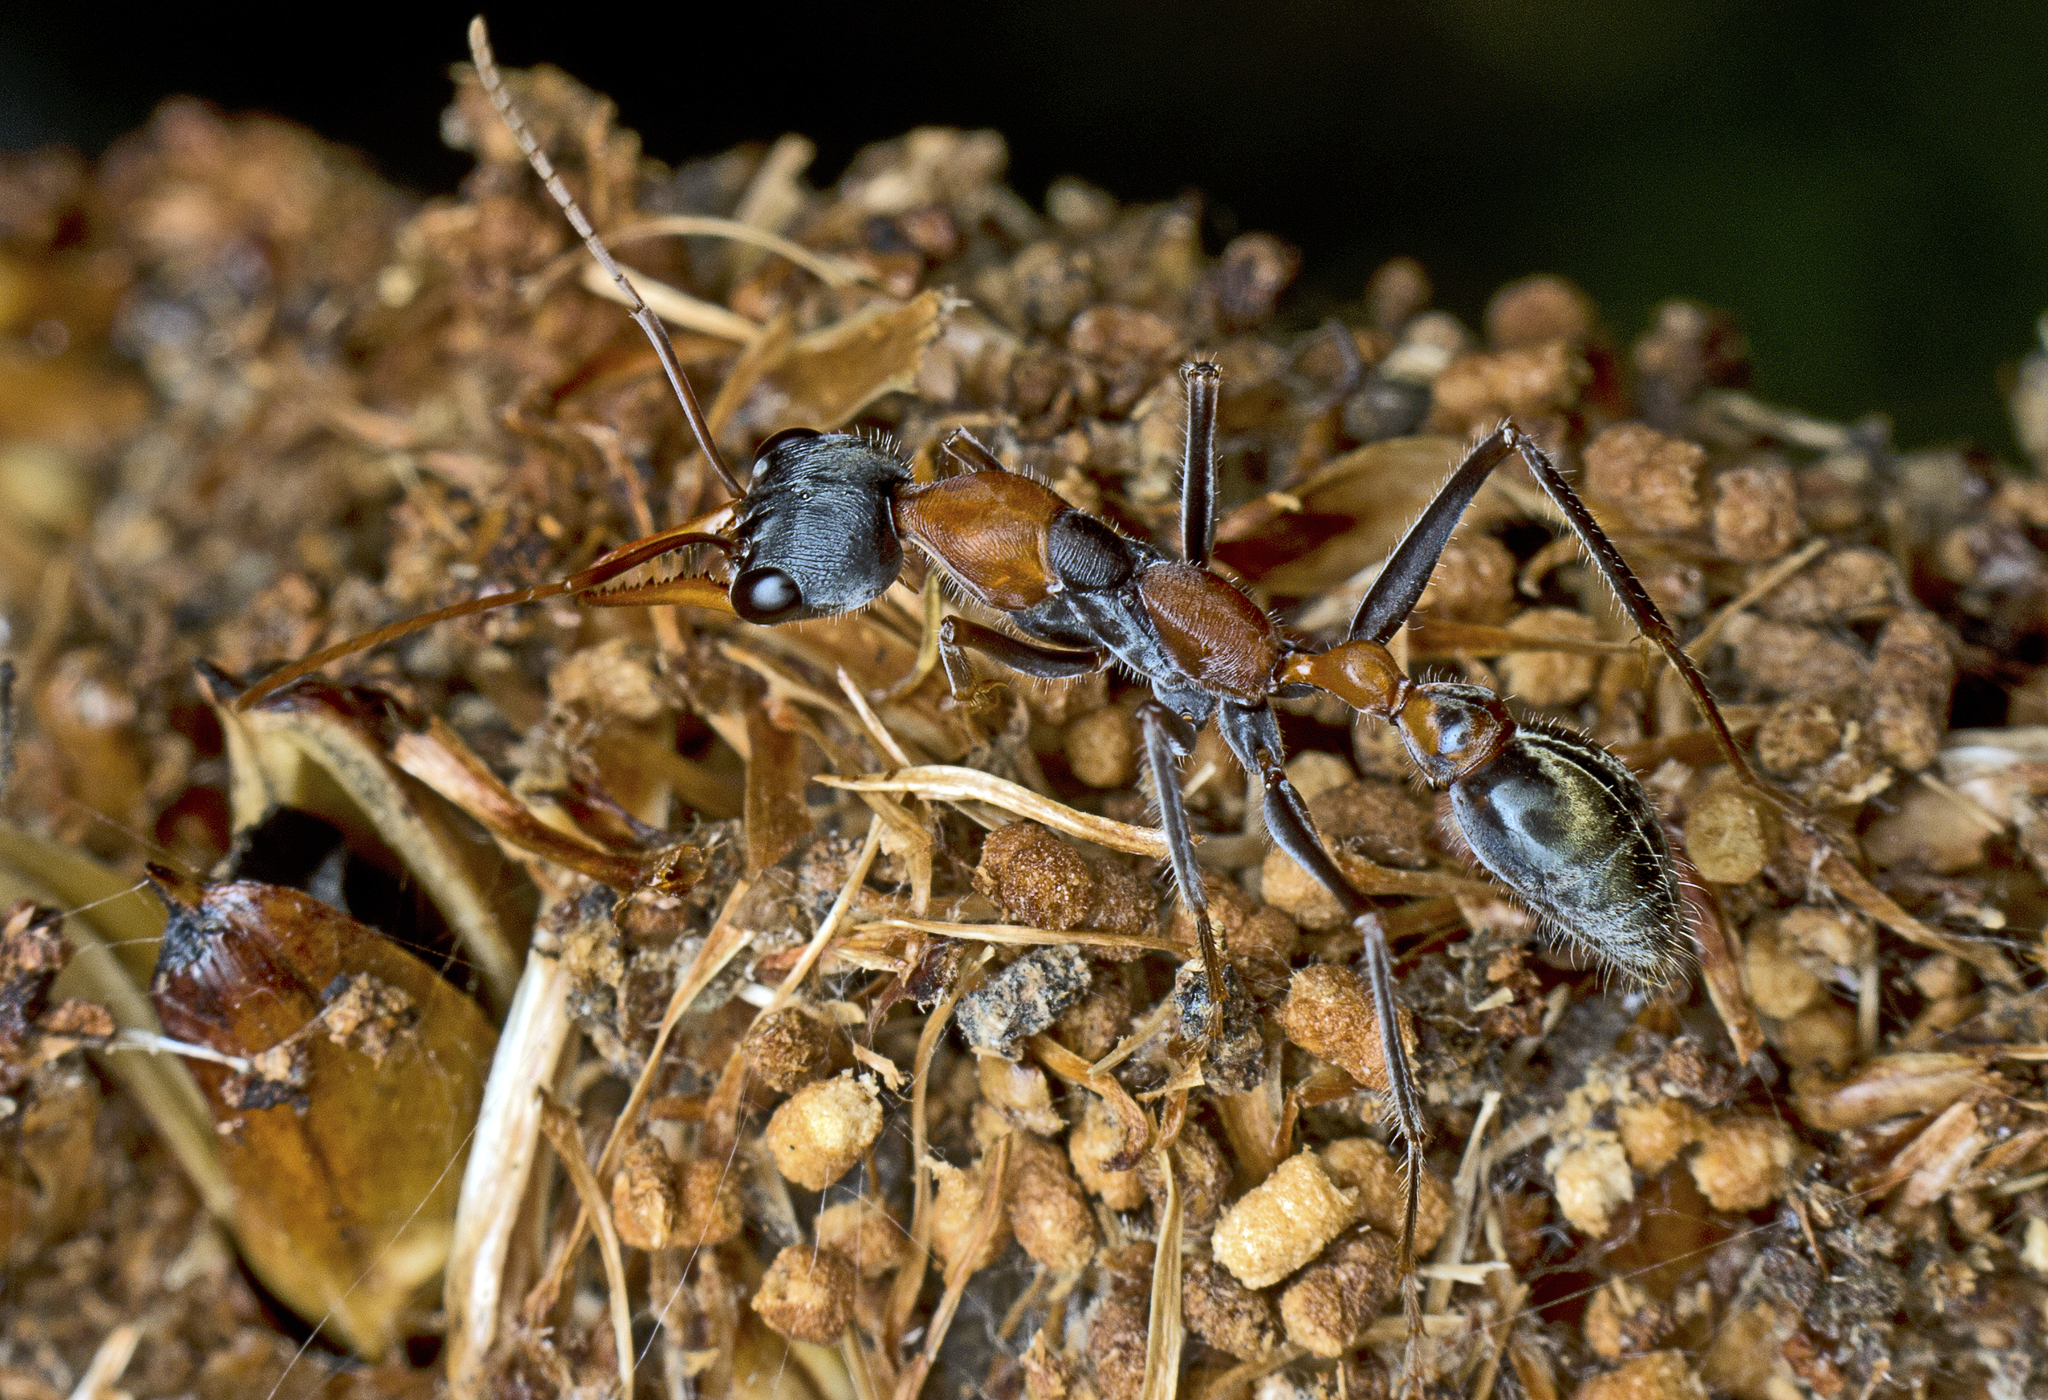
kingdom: Animalia
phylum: Arthropoda
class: Insecta
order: Hymenoptera
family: Formicidae
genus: Myrmecia
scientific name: Myrmecia nigrocincta
